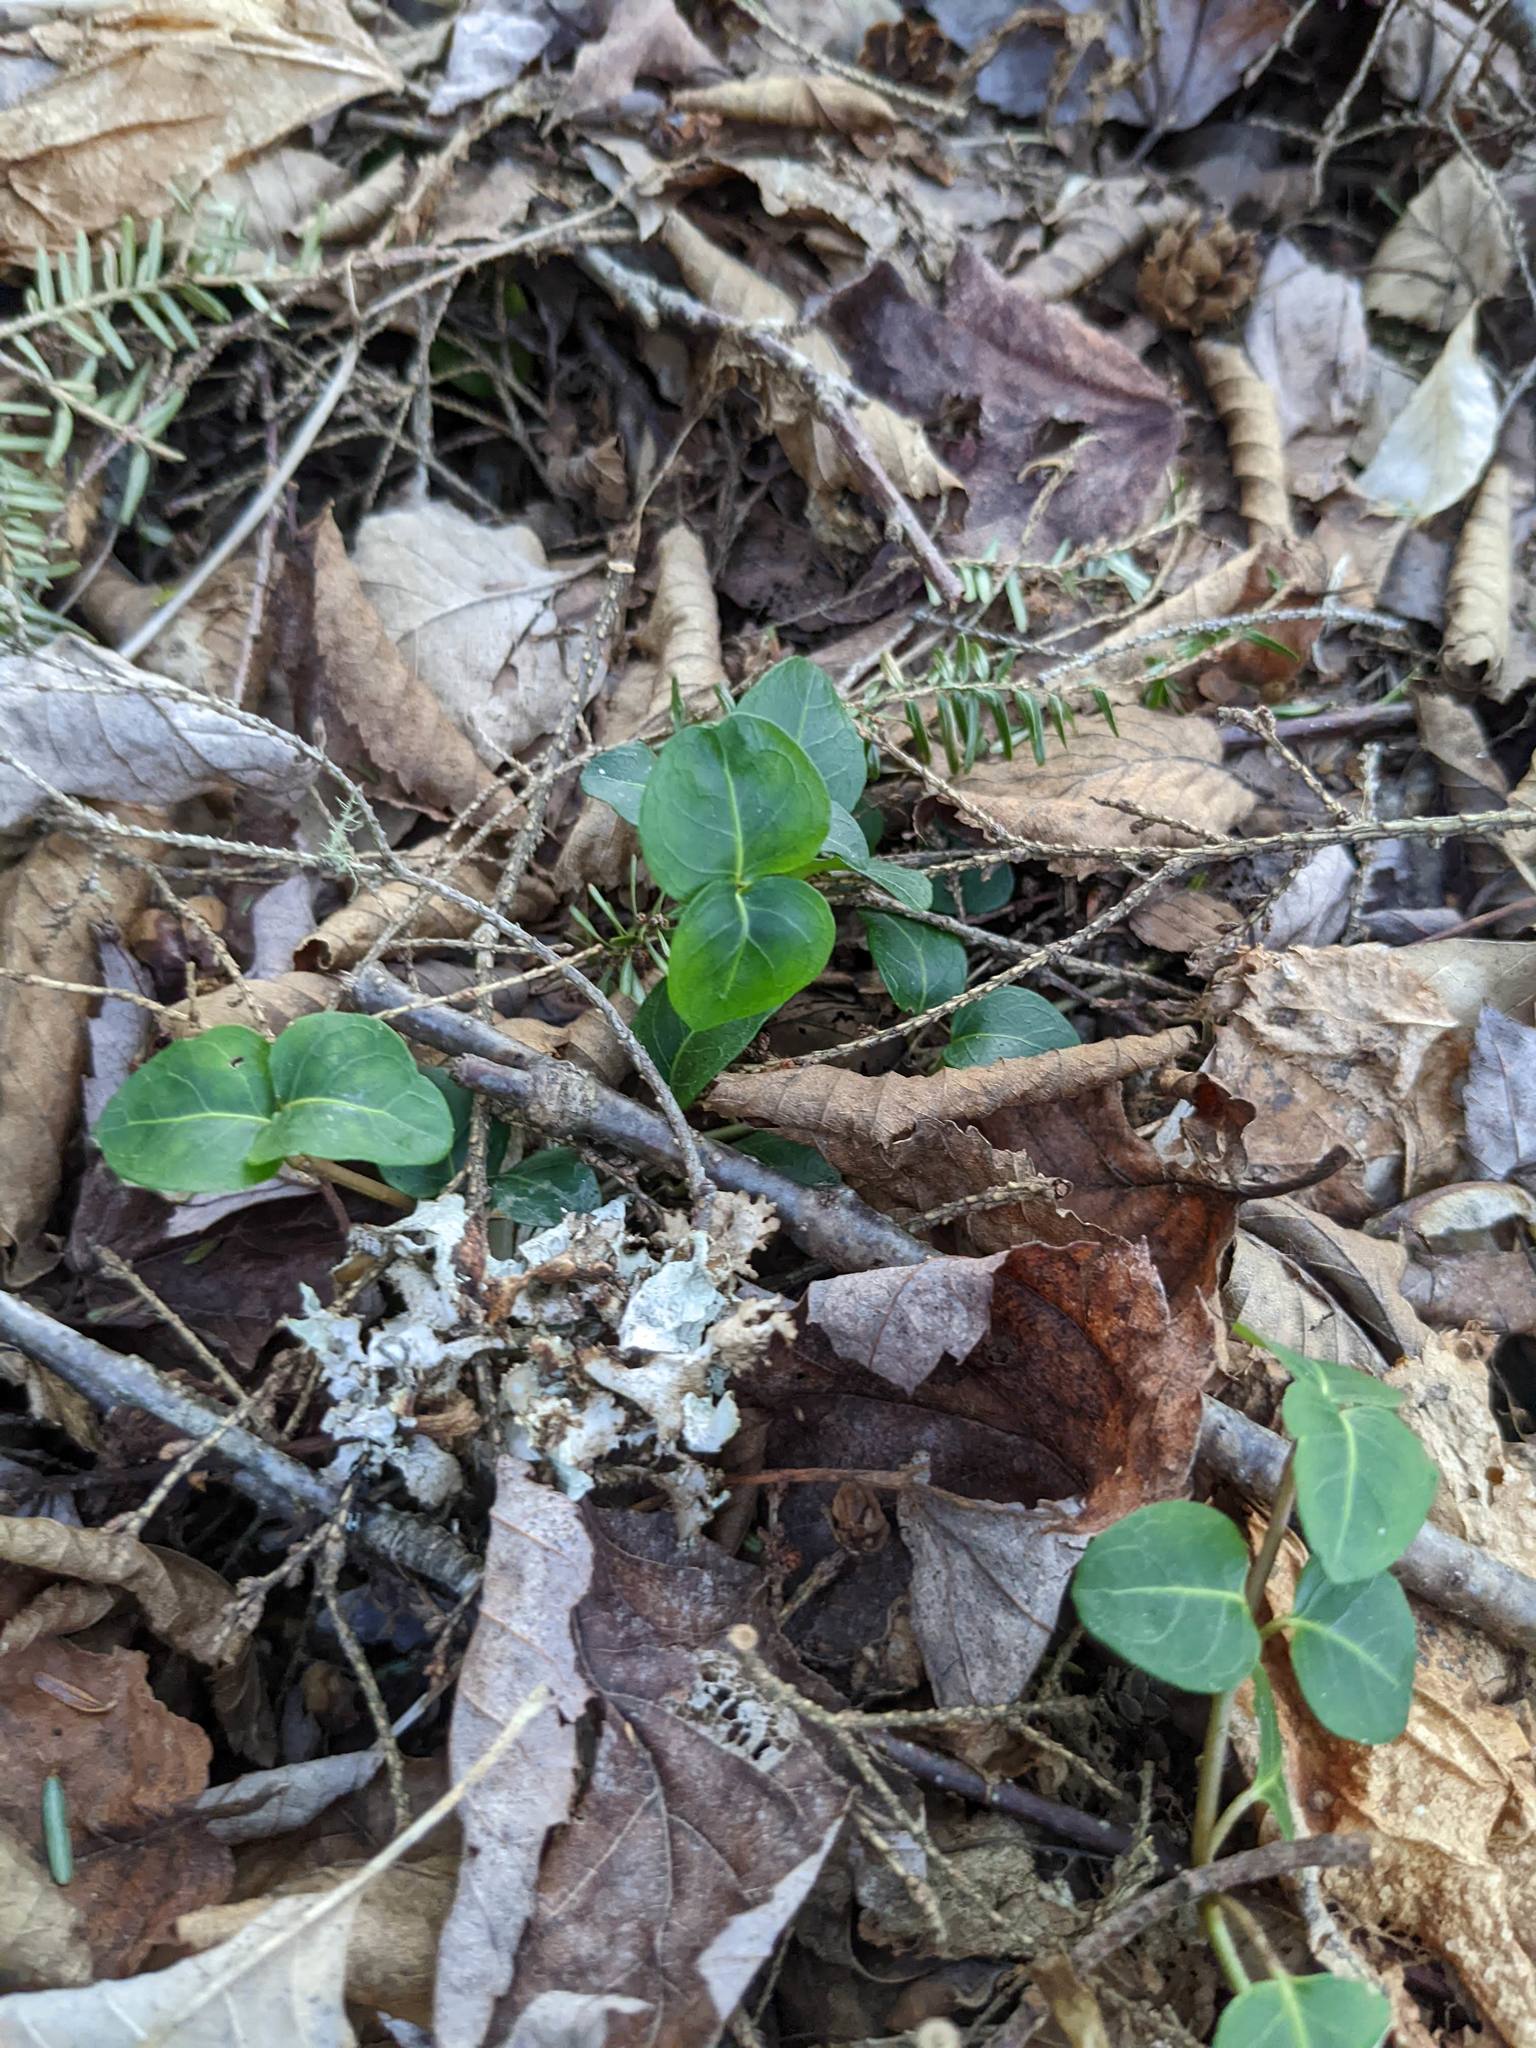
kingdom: Plantae
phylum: Tracheophyta
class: Magnoliopsida
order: Gentianales
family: Rubiaceae
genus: Mitchella
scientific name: Mitchella repens
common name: Partridge-berry
